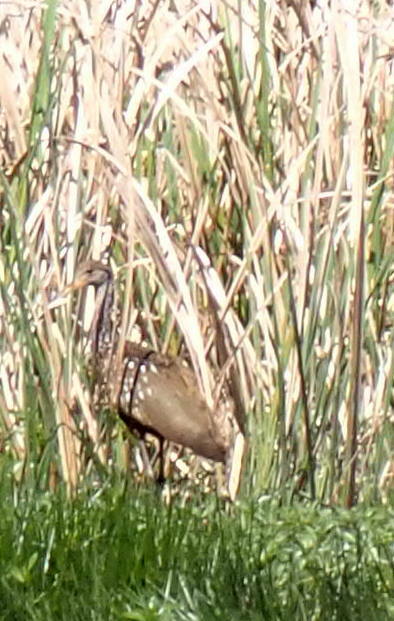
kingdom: Animalia
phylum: Chordata
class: Aves
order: Gruiformes
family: Aramidae
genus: Aramus
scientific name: Aramus guarauna
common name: Limpkin
